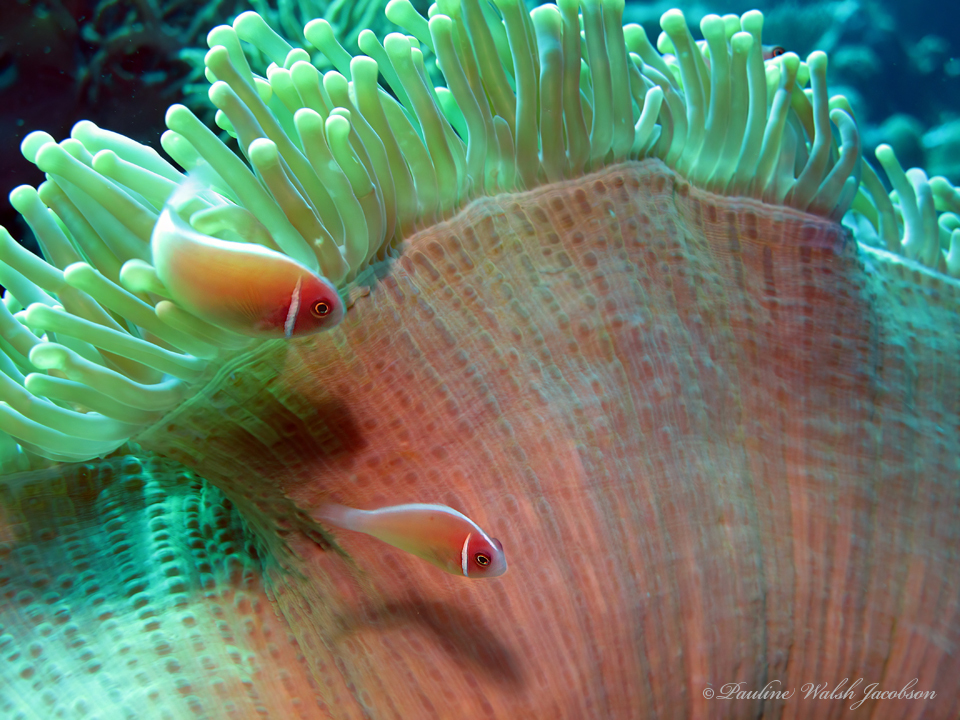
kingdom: Animalia
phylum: Chordata
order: Perciformes
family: Pomacentridae
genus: Amphiprion
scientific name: Amphiprion perideraion
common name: Pink anemonefish
